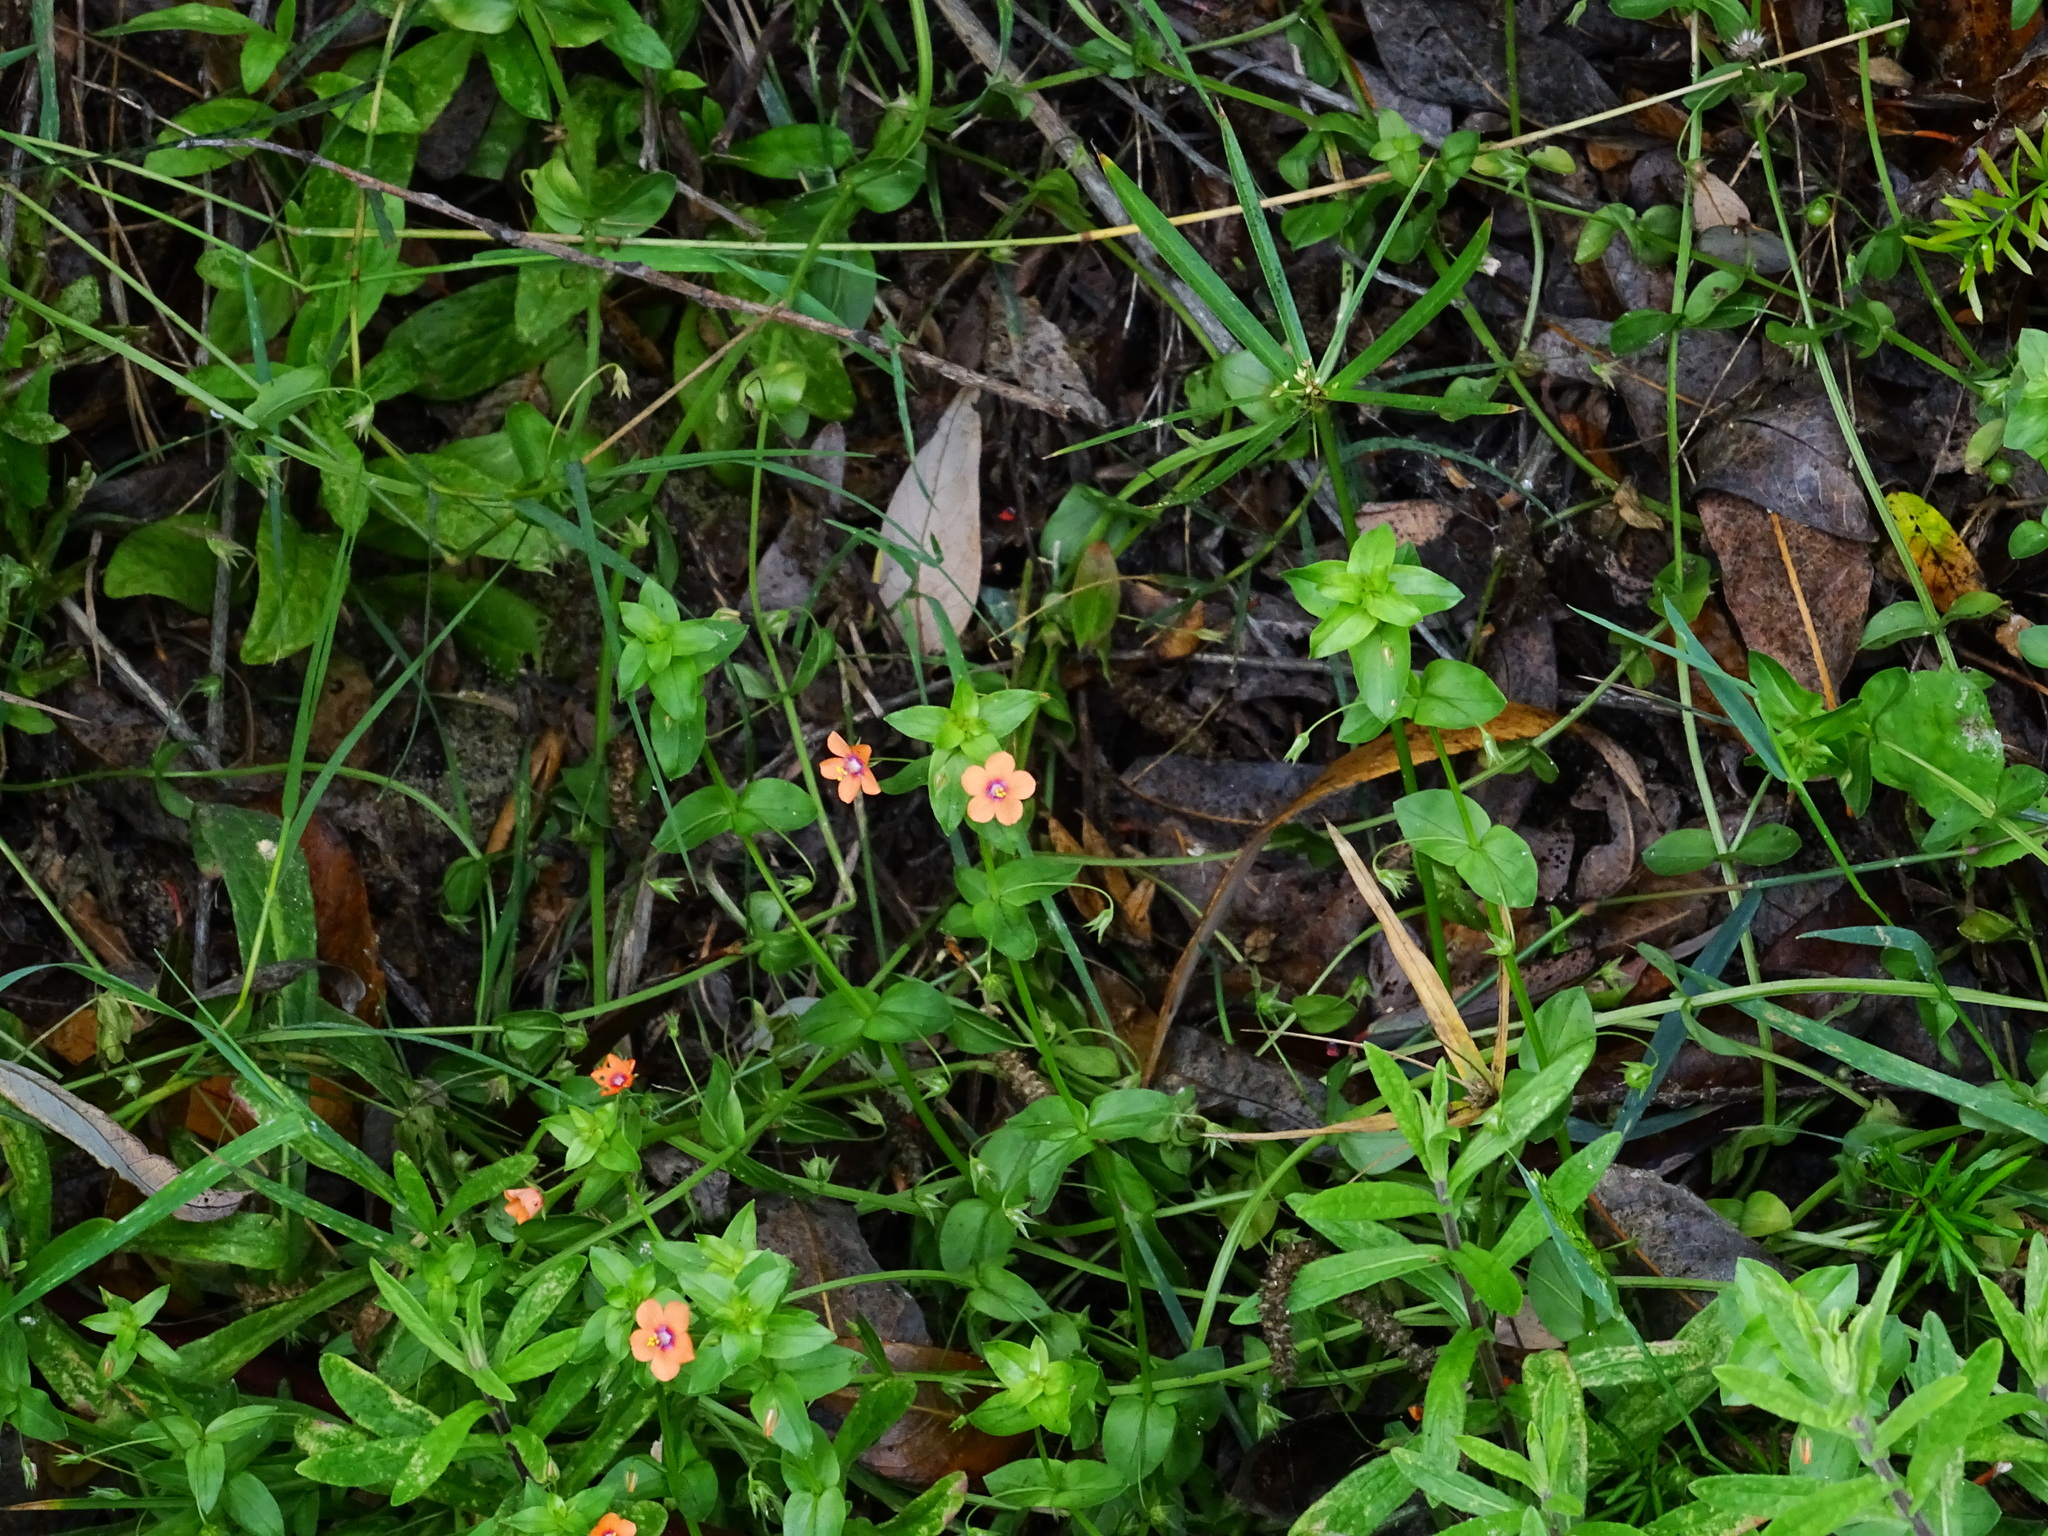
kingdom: Plantae
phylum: Tracheophyta
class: Magnoliopsida
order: Ericales
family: Primulaceae
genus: Lysimachia
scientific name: Lysimachia arvensis
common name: Scarlet pimpernel
